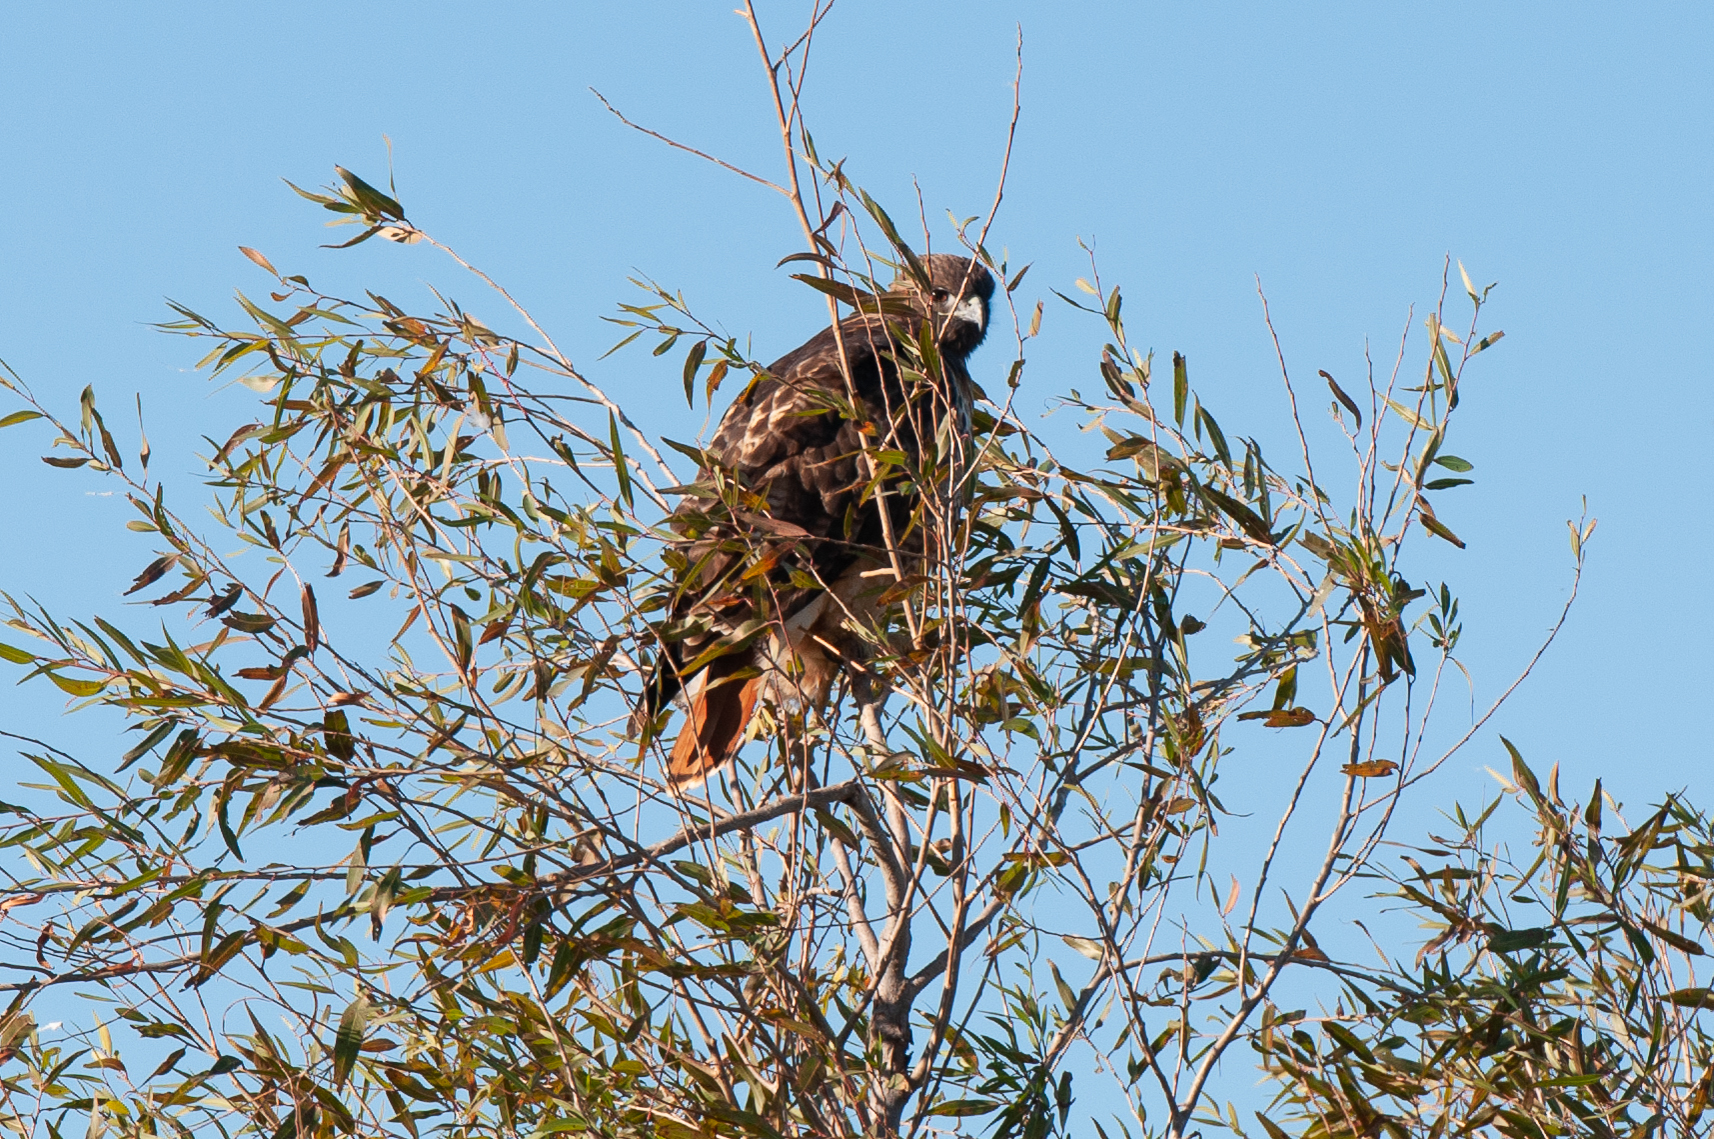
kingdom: Animalia
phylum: Chordata
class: Aves
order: Accipitriformes
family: Accipitridae
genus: Buteo
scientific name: Buteo jamaicensis
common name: Red-tailed hawk
